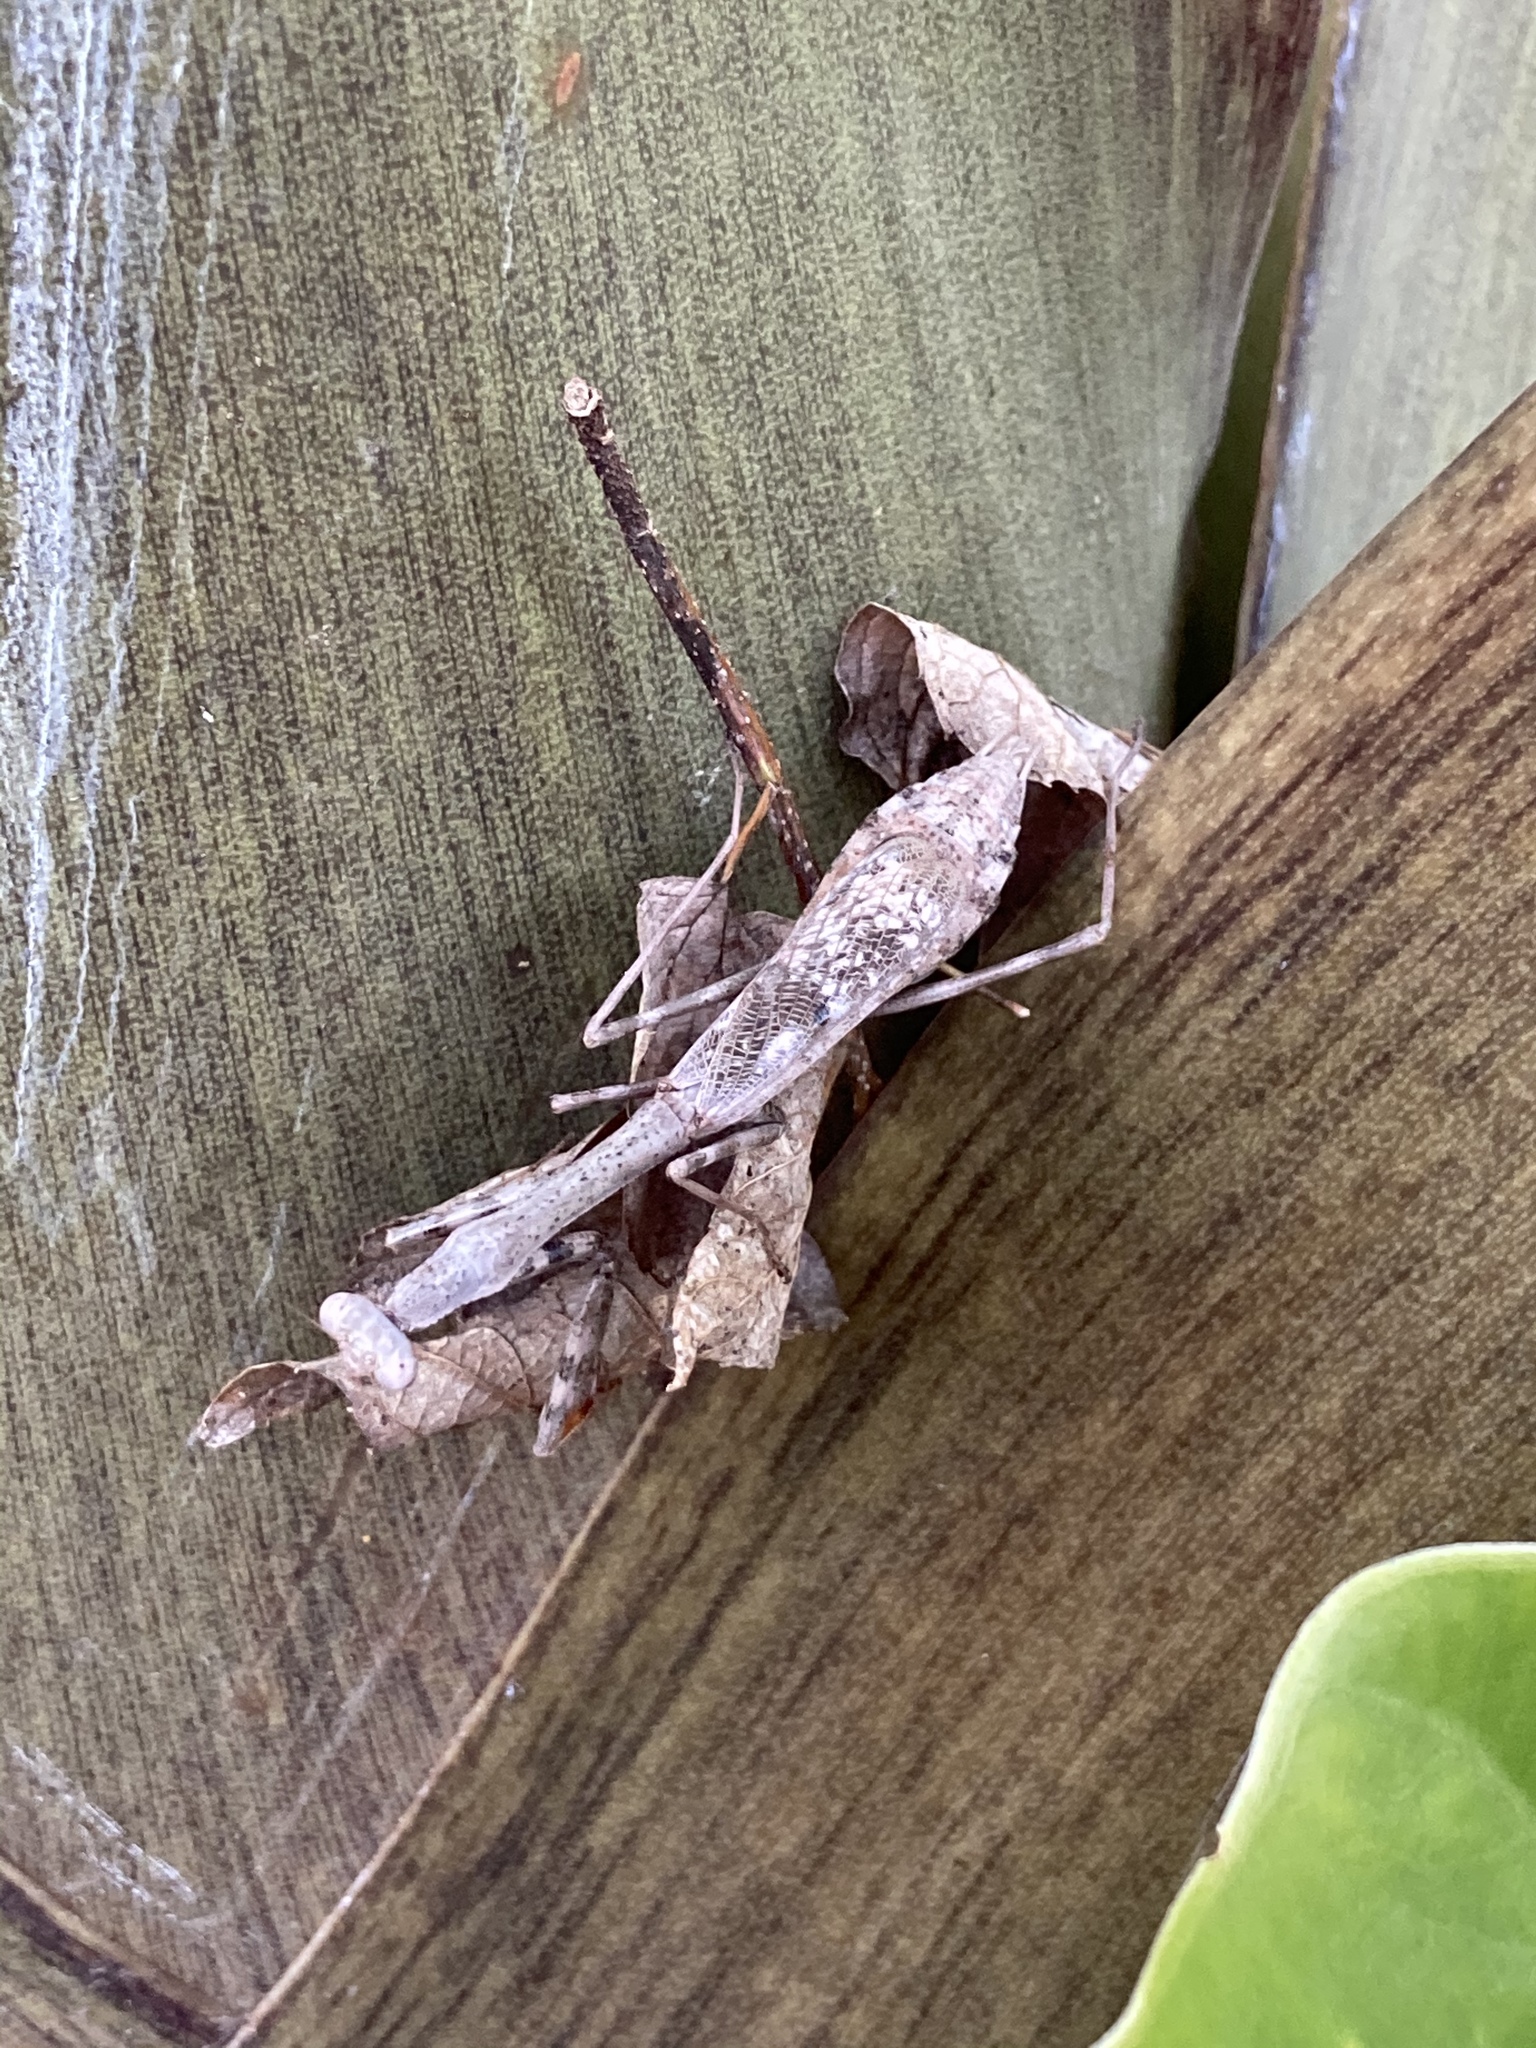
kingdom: Animalia
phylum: Arthropoda
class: Insecta
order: Mantodea
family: Mantidae
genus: Stagmomantis
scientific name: Stagmomantis carolina
